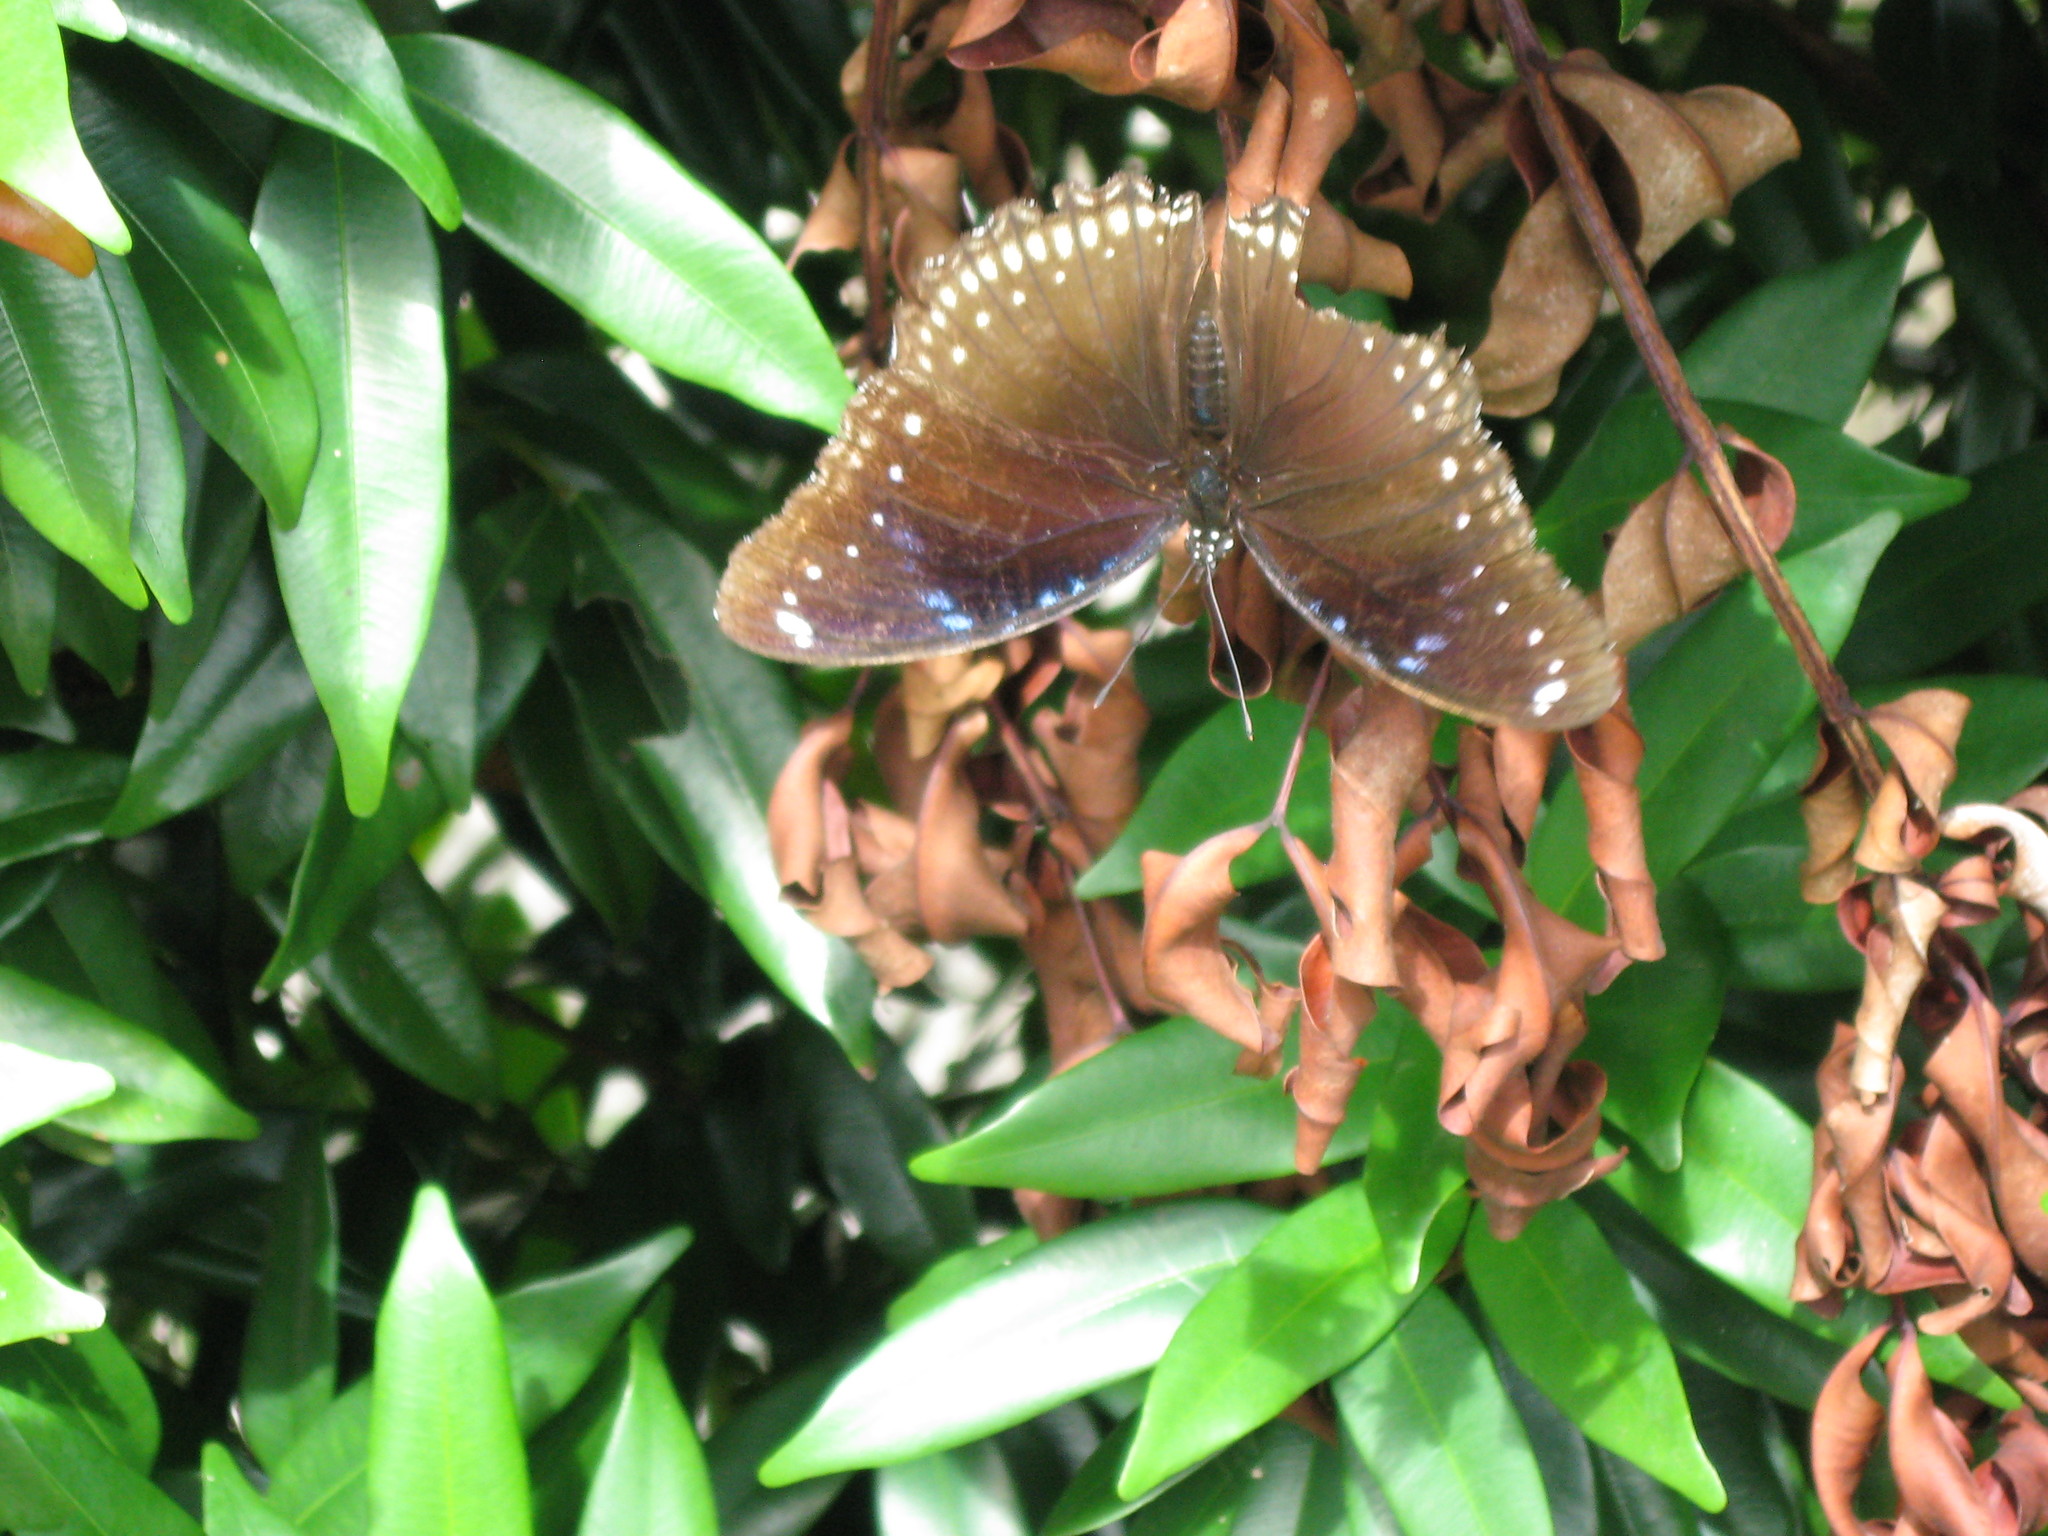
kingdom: Animalia
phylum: Arthropoda
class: Insecta
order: Lepidoptera
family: Nymphalidae
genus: Hypolimnas
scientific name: Hypolimnas bolina
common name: Great eggfly
